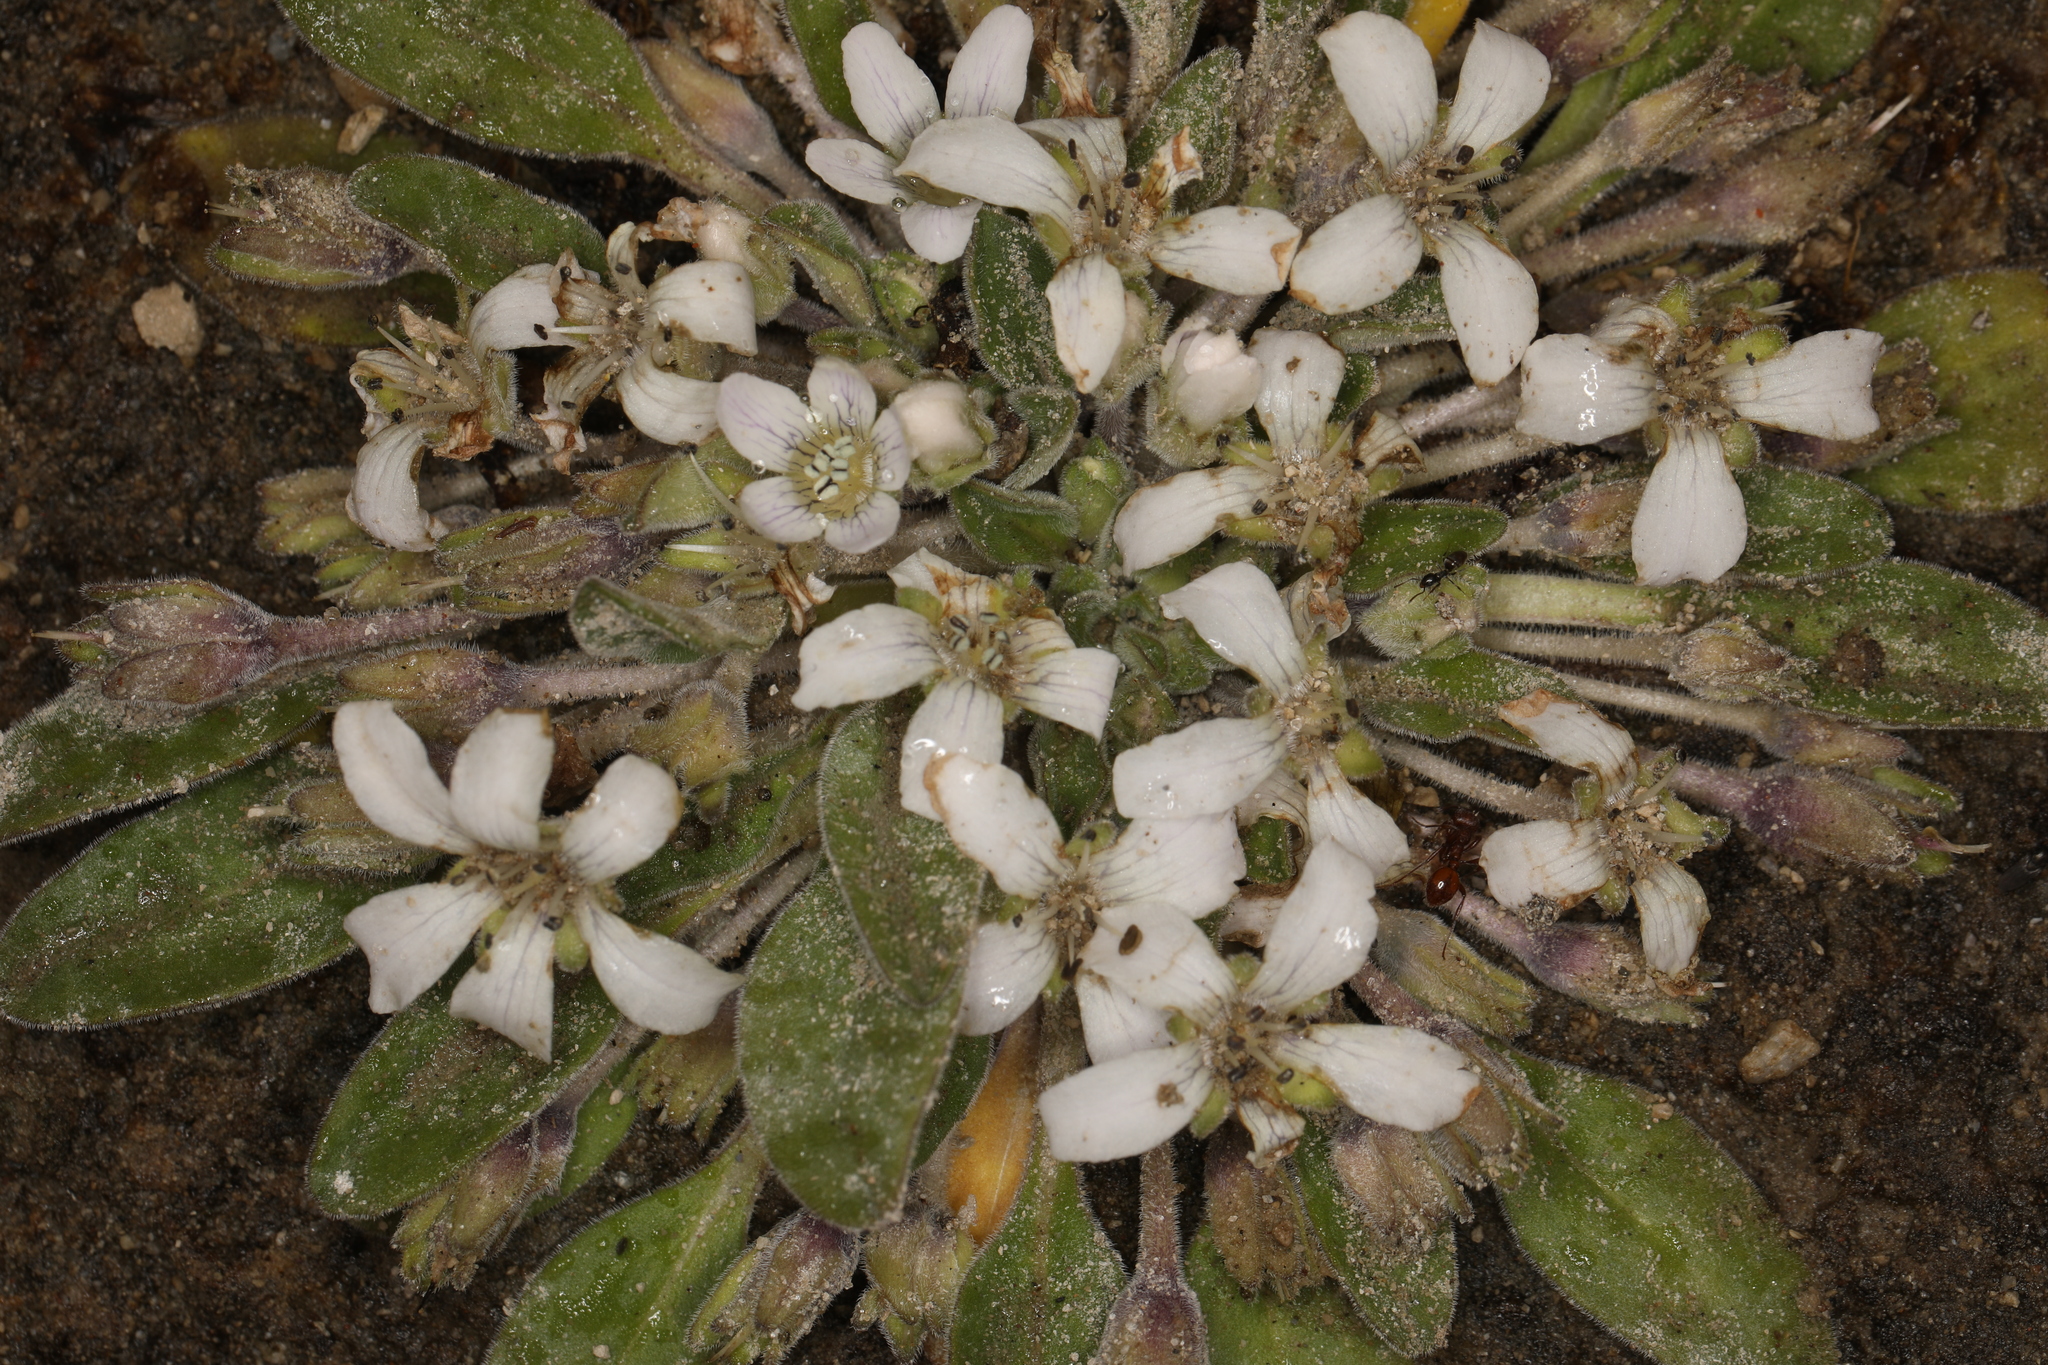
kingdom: Plantae
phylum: Tracheophyta
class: Magnoliopsida
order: Boraginales
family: Hydrophyllaceae
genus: Hesperochiron
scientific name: Hesperochiron californicus
